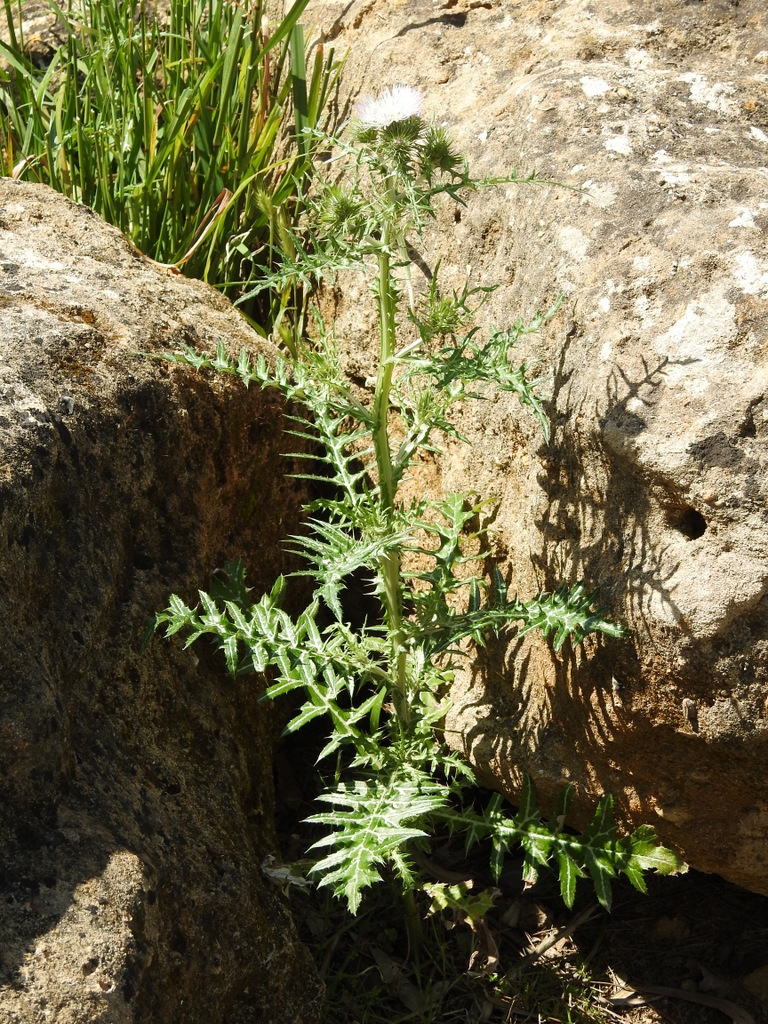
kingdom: Plantae
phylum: Tracheophyta
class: Magnoliopsida
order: Asterales
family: Asteraceae
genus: Galactites
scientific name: Galactites tomentosa
